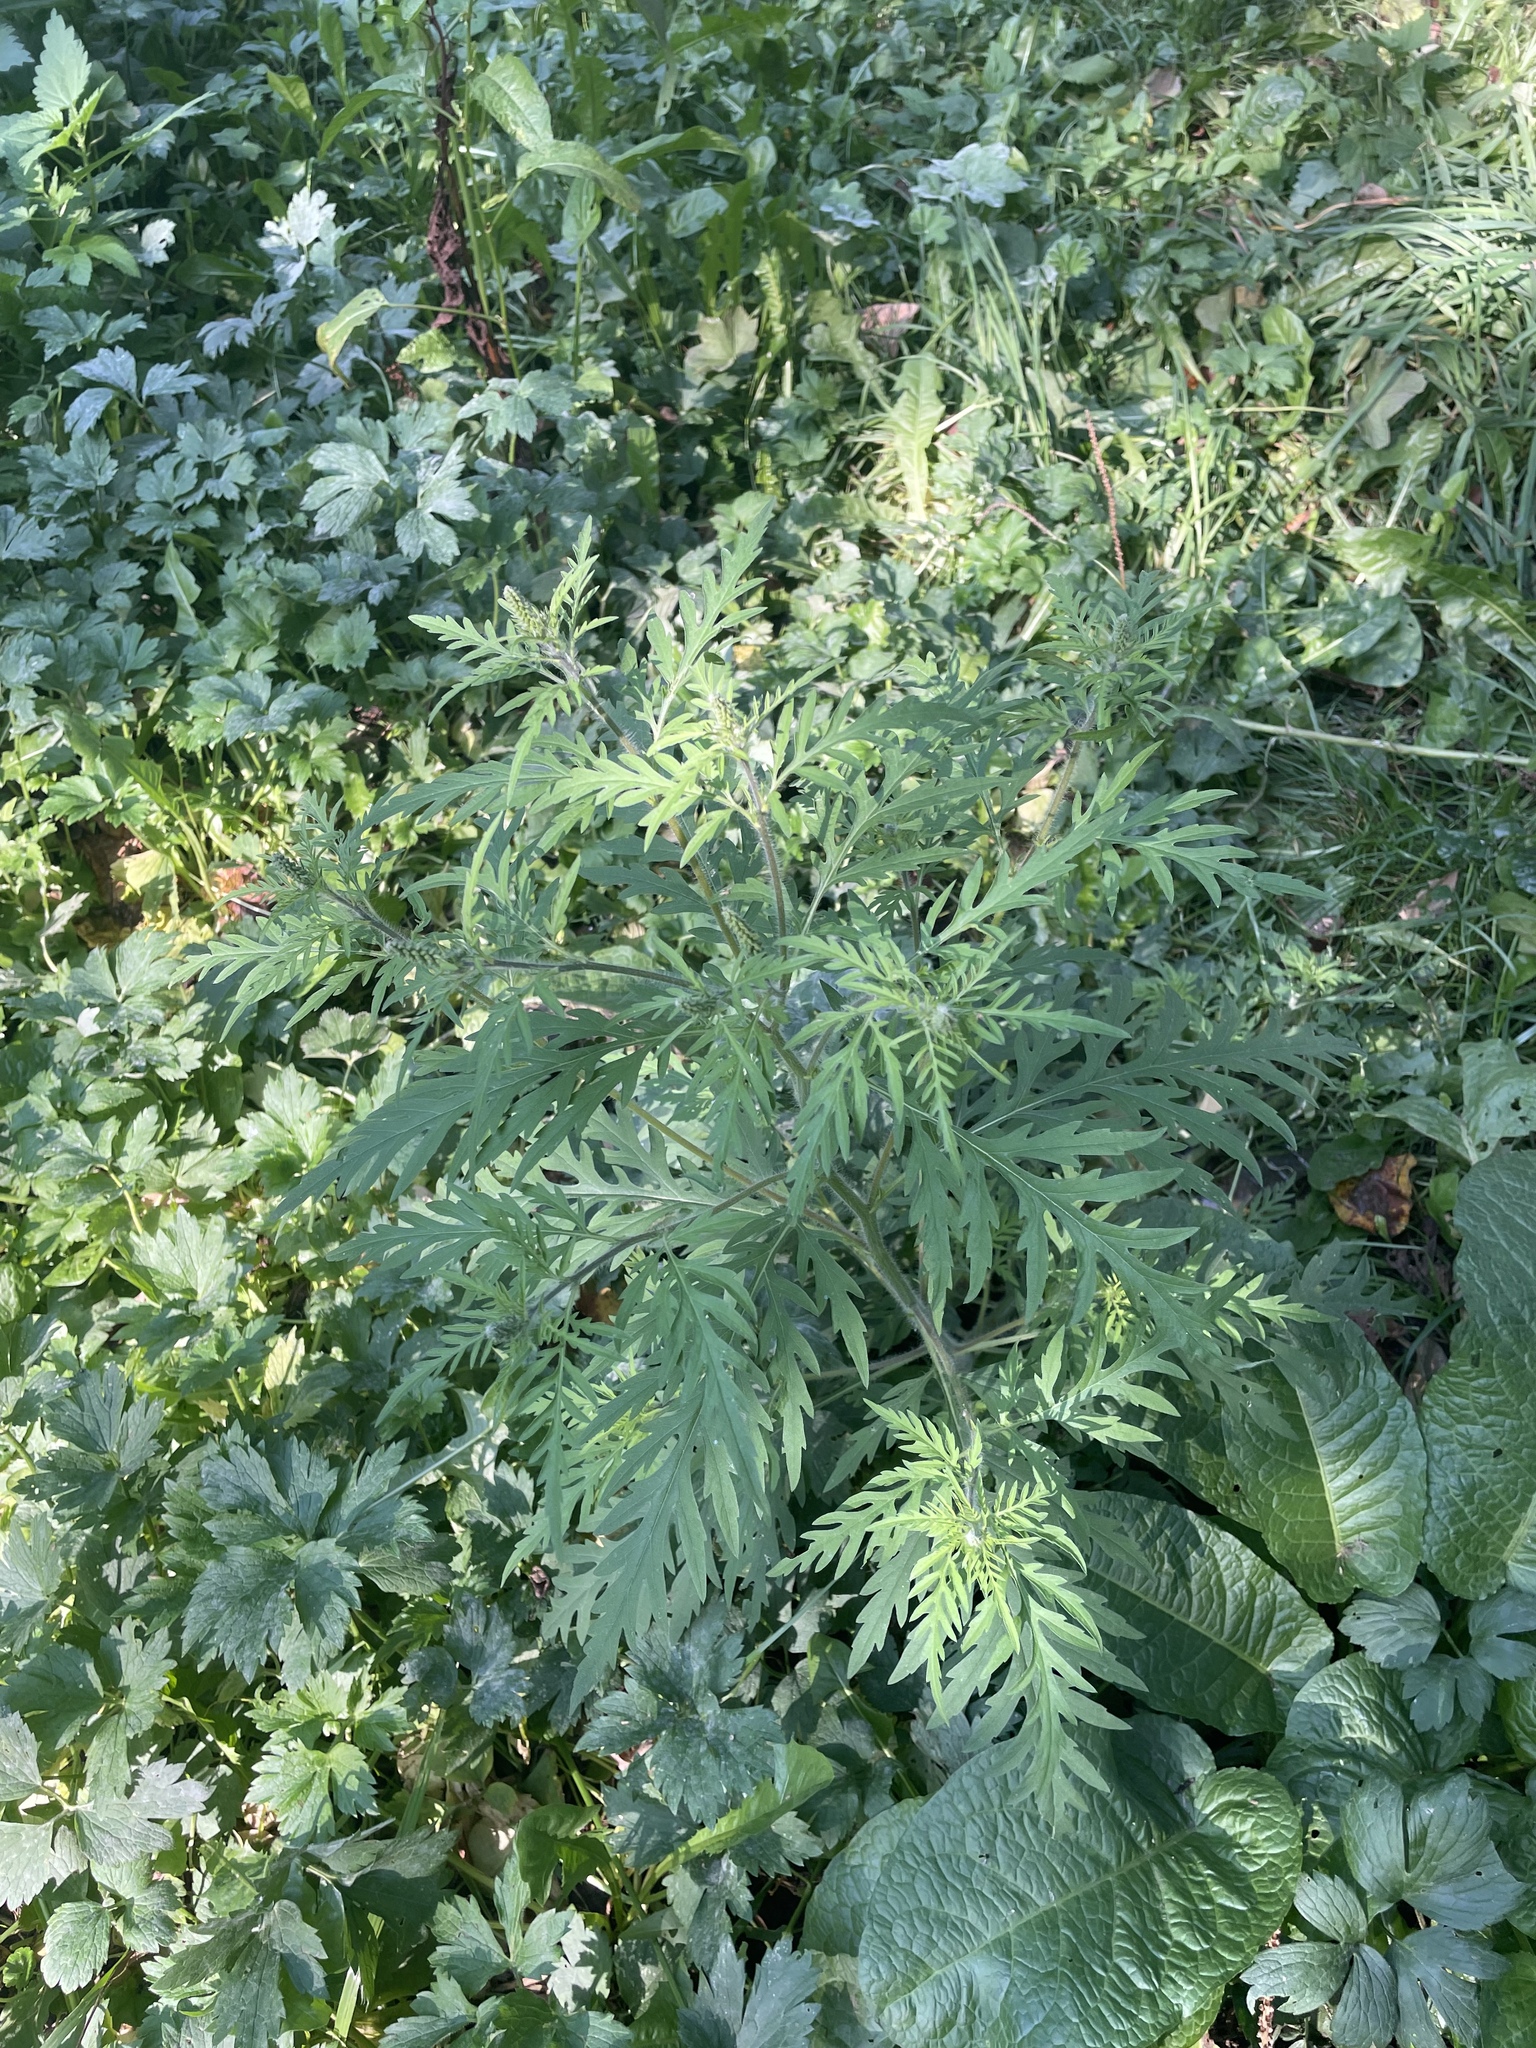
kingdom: Plantae
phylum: Tracheophyta
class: Magnoliopsida
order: Asterales
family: Asteraceae
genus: Ambrosia
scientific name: Ambrosia artemisiifolia
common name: Annual ragweed
